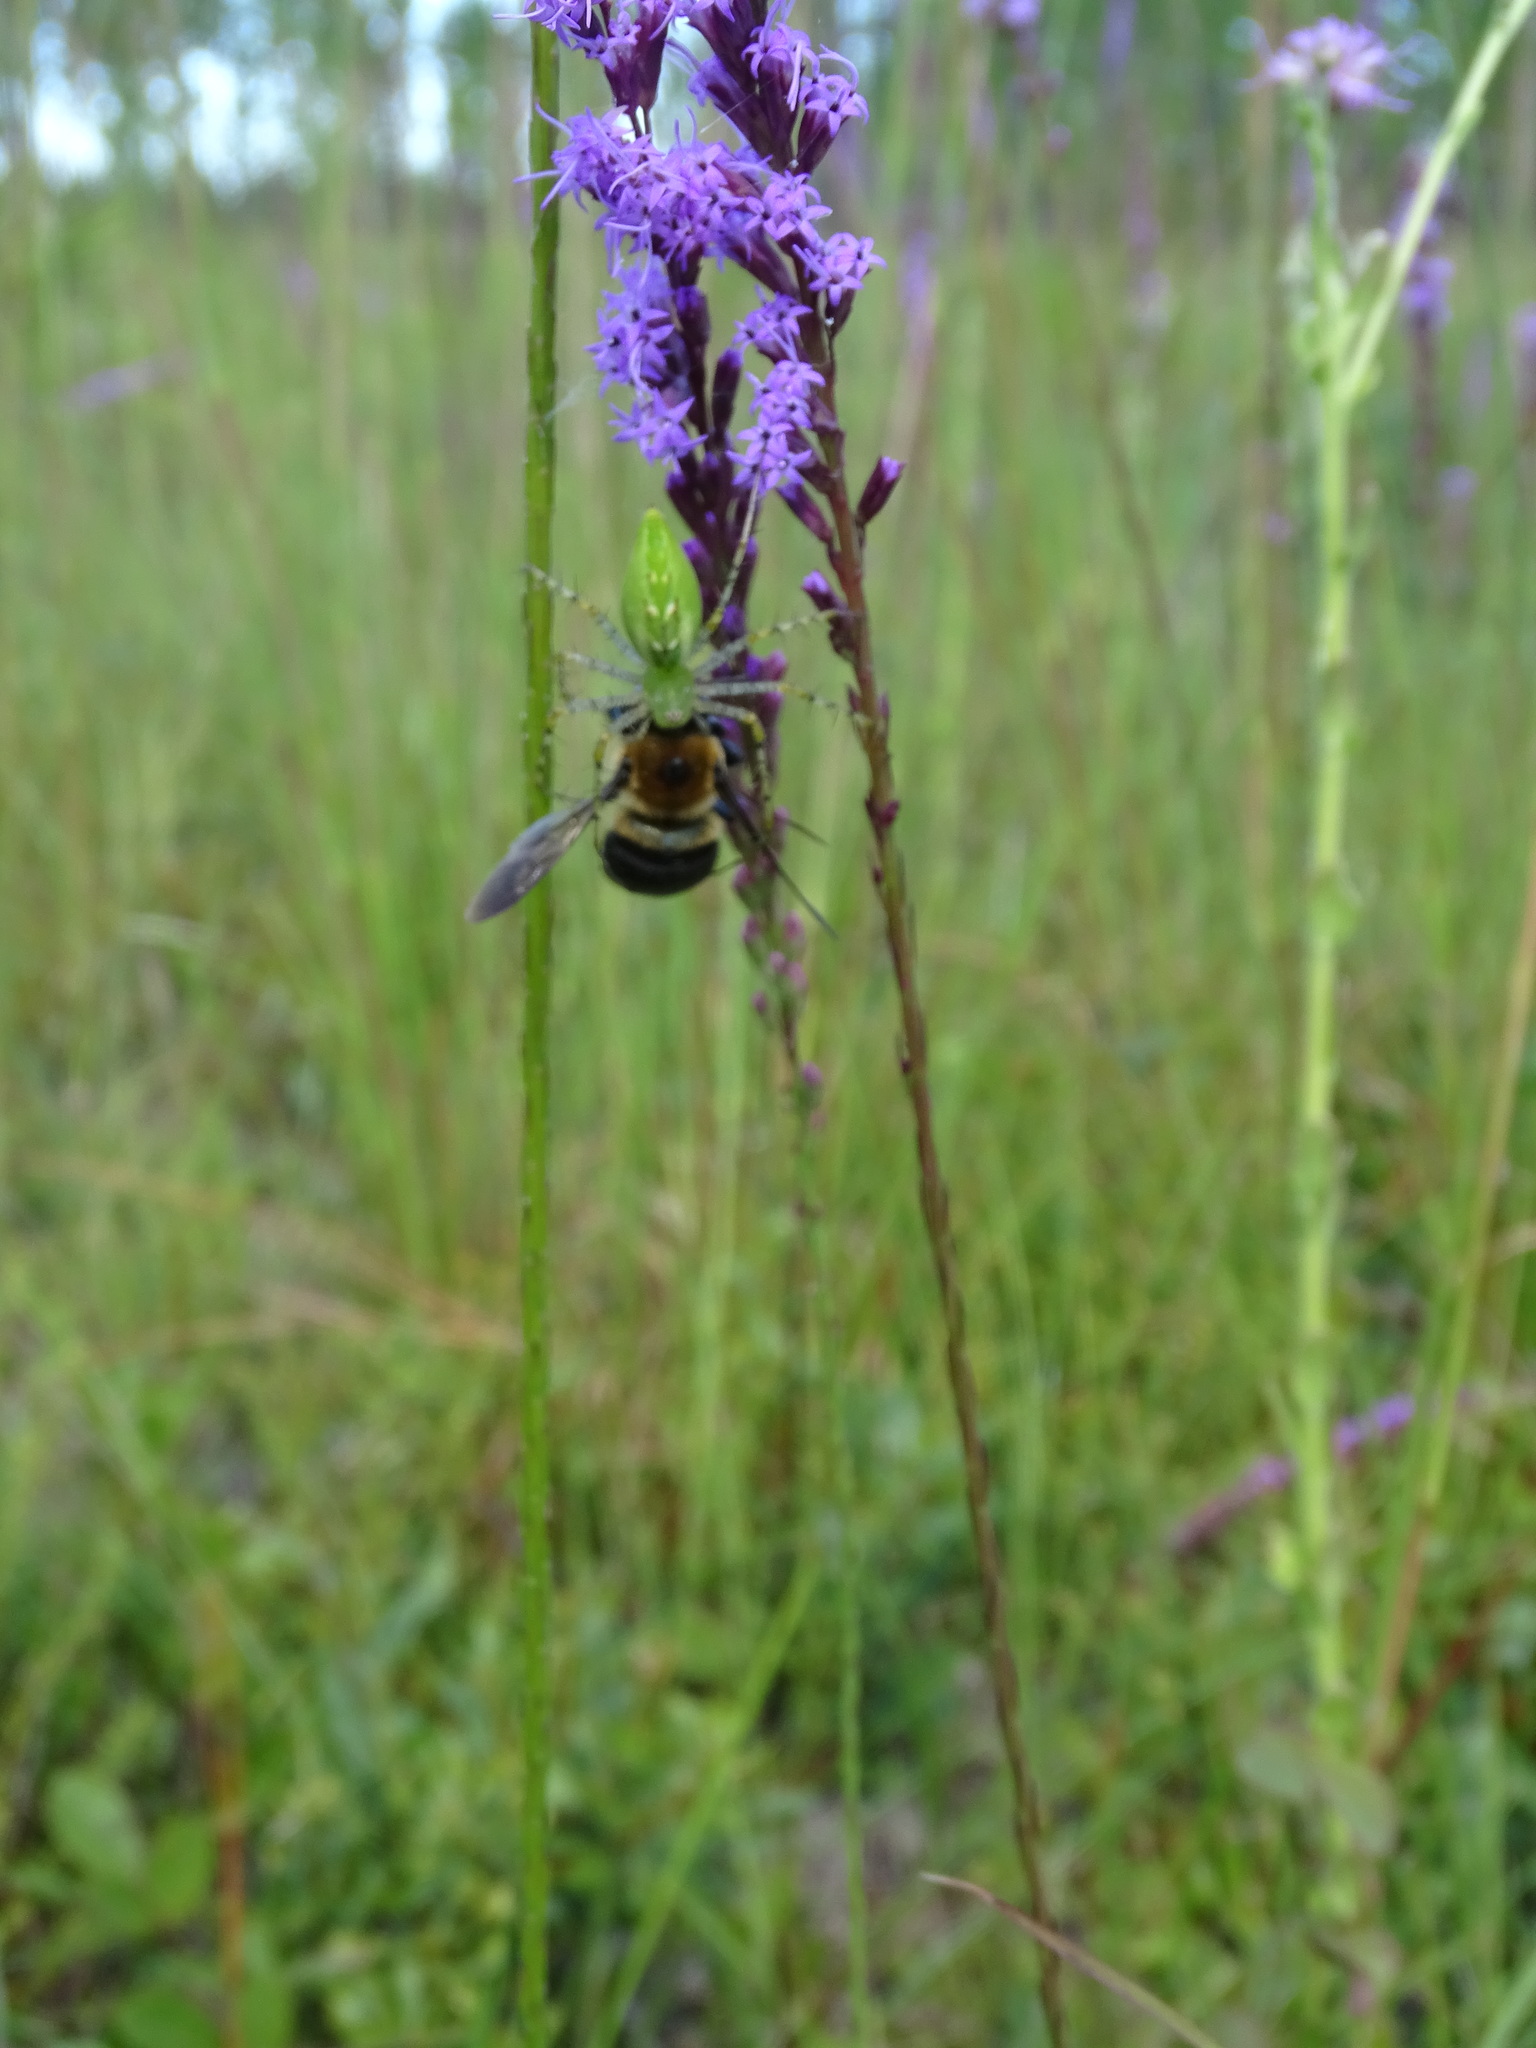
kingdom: Animalia
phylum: Arthropoda
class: Arachnida
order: Araneae
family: Oxyopidae
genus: Peucetia
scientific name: Peucetia viridans
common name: Lynx spiders
